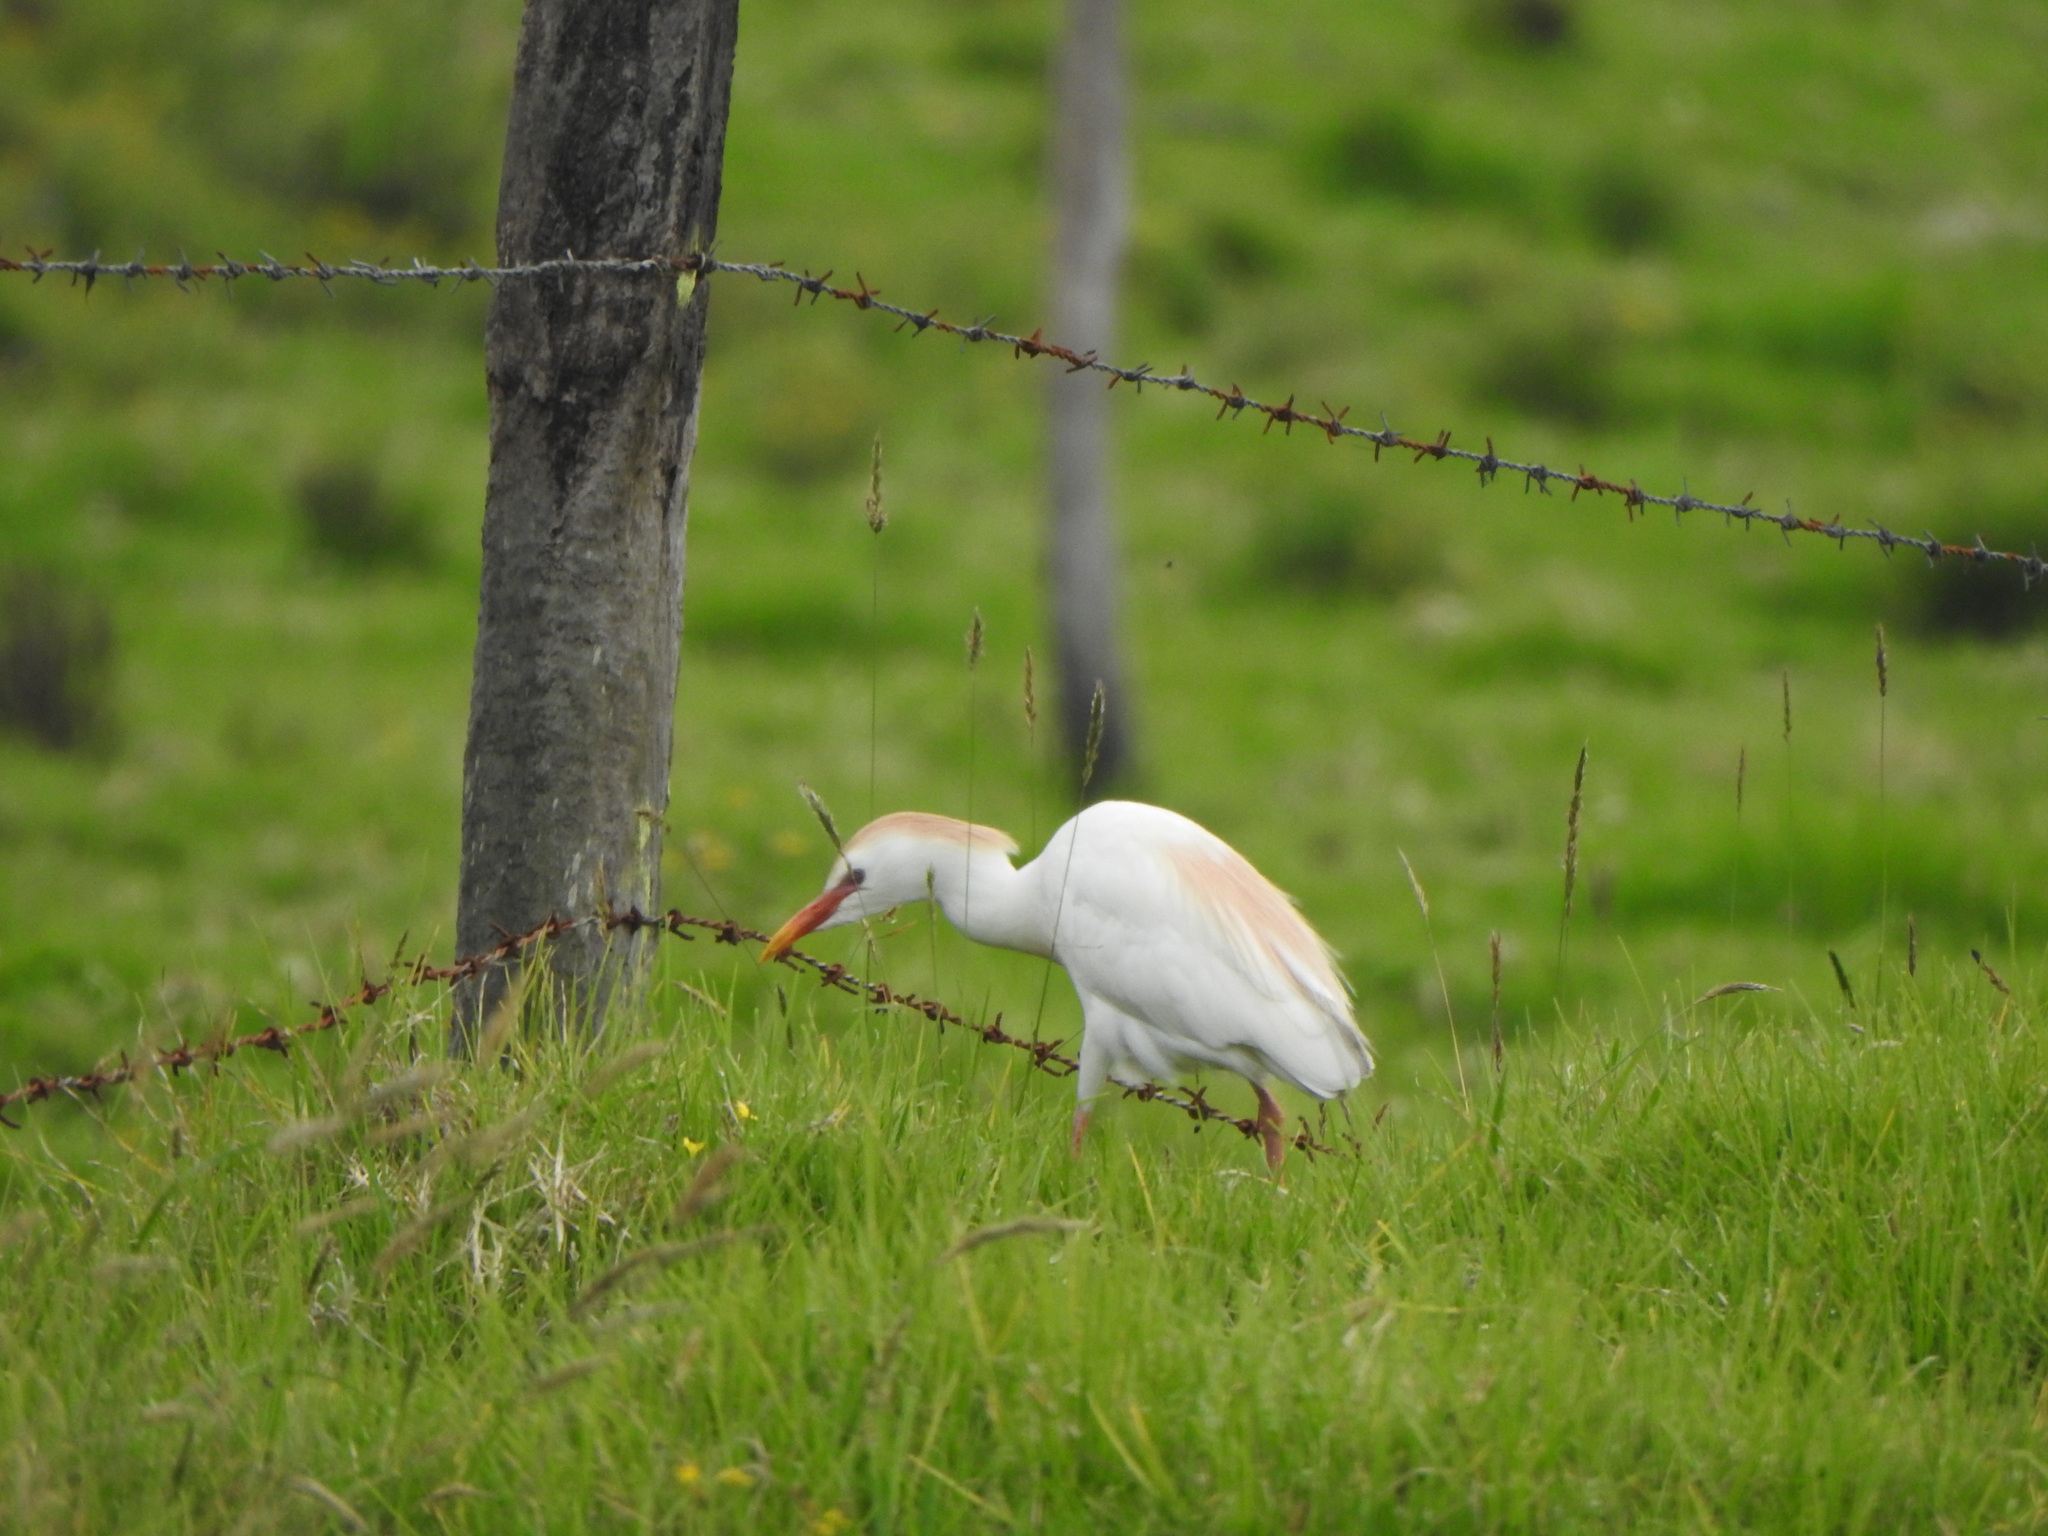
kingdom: Animalia
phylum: Chordata
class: Aves
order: Pelecaniformes
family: Ardeidae
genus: Bubulcus
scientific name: Bubulcus ibis
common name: Cattle egret
